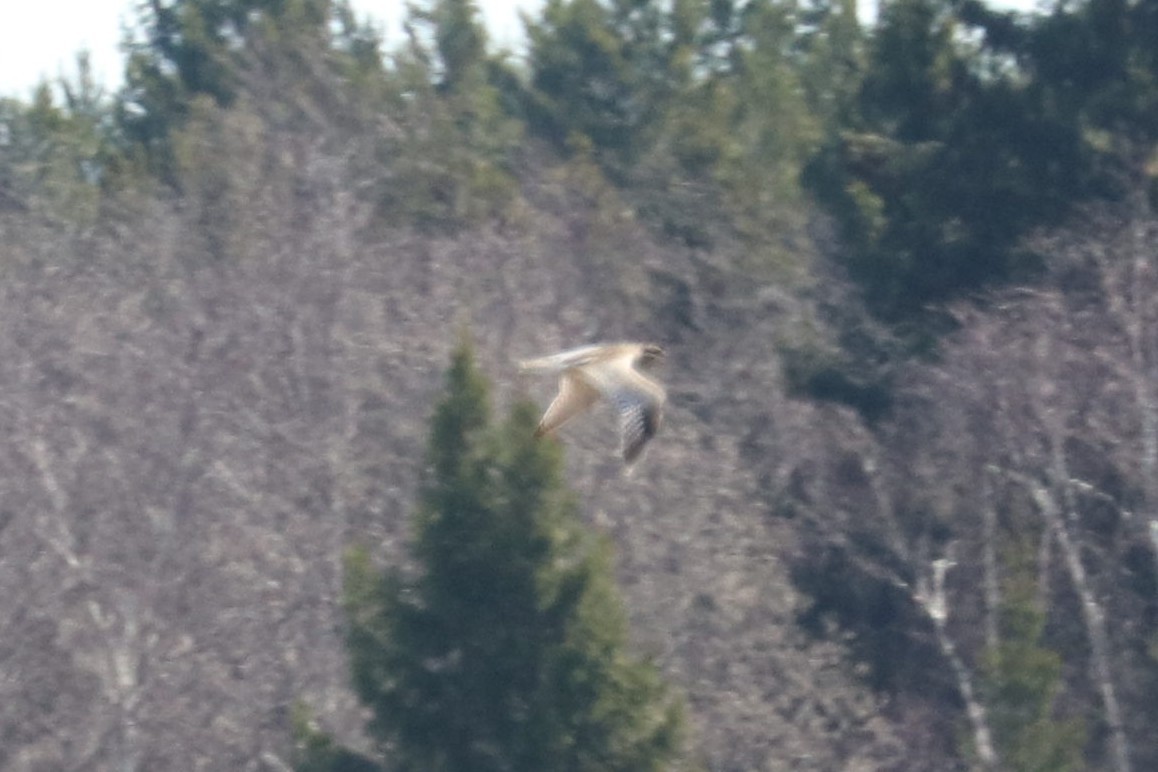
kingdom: Animalia
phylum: Chordata
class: Aves
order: Charadriiformes
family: Scolopacidae
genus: Numenius
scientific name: Numenius arquata
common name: Eurasian curlew
